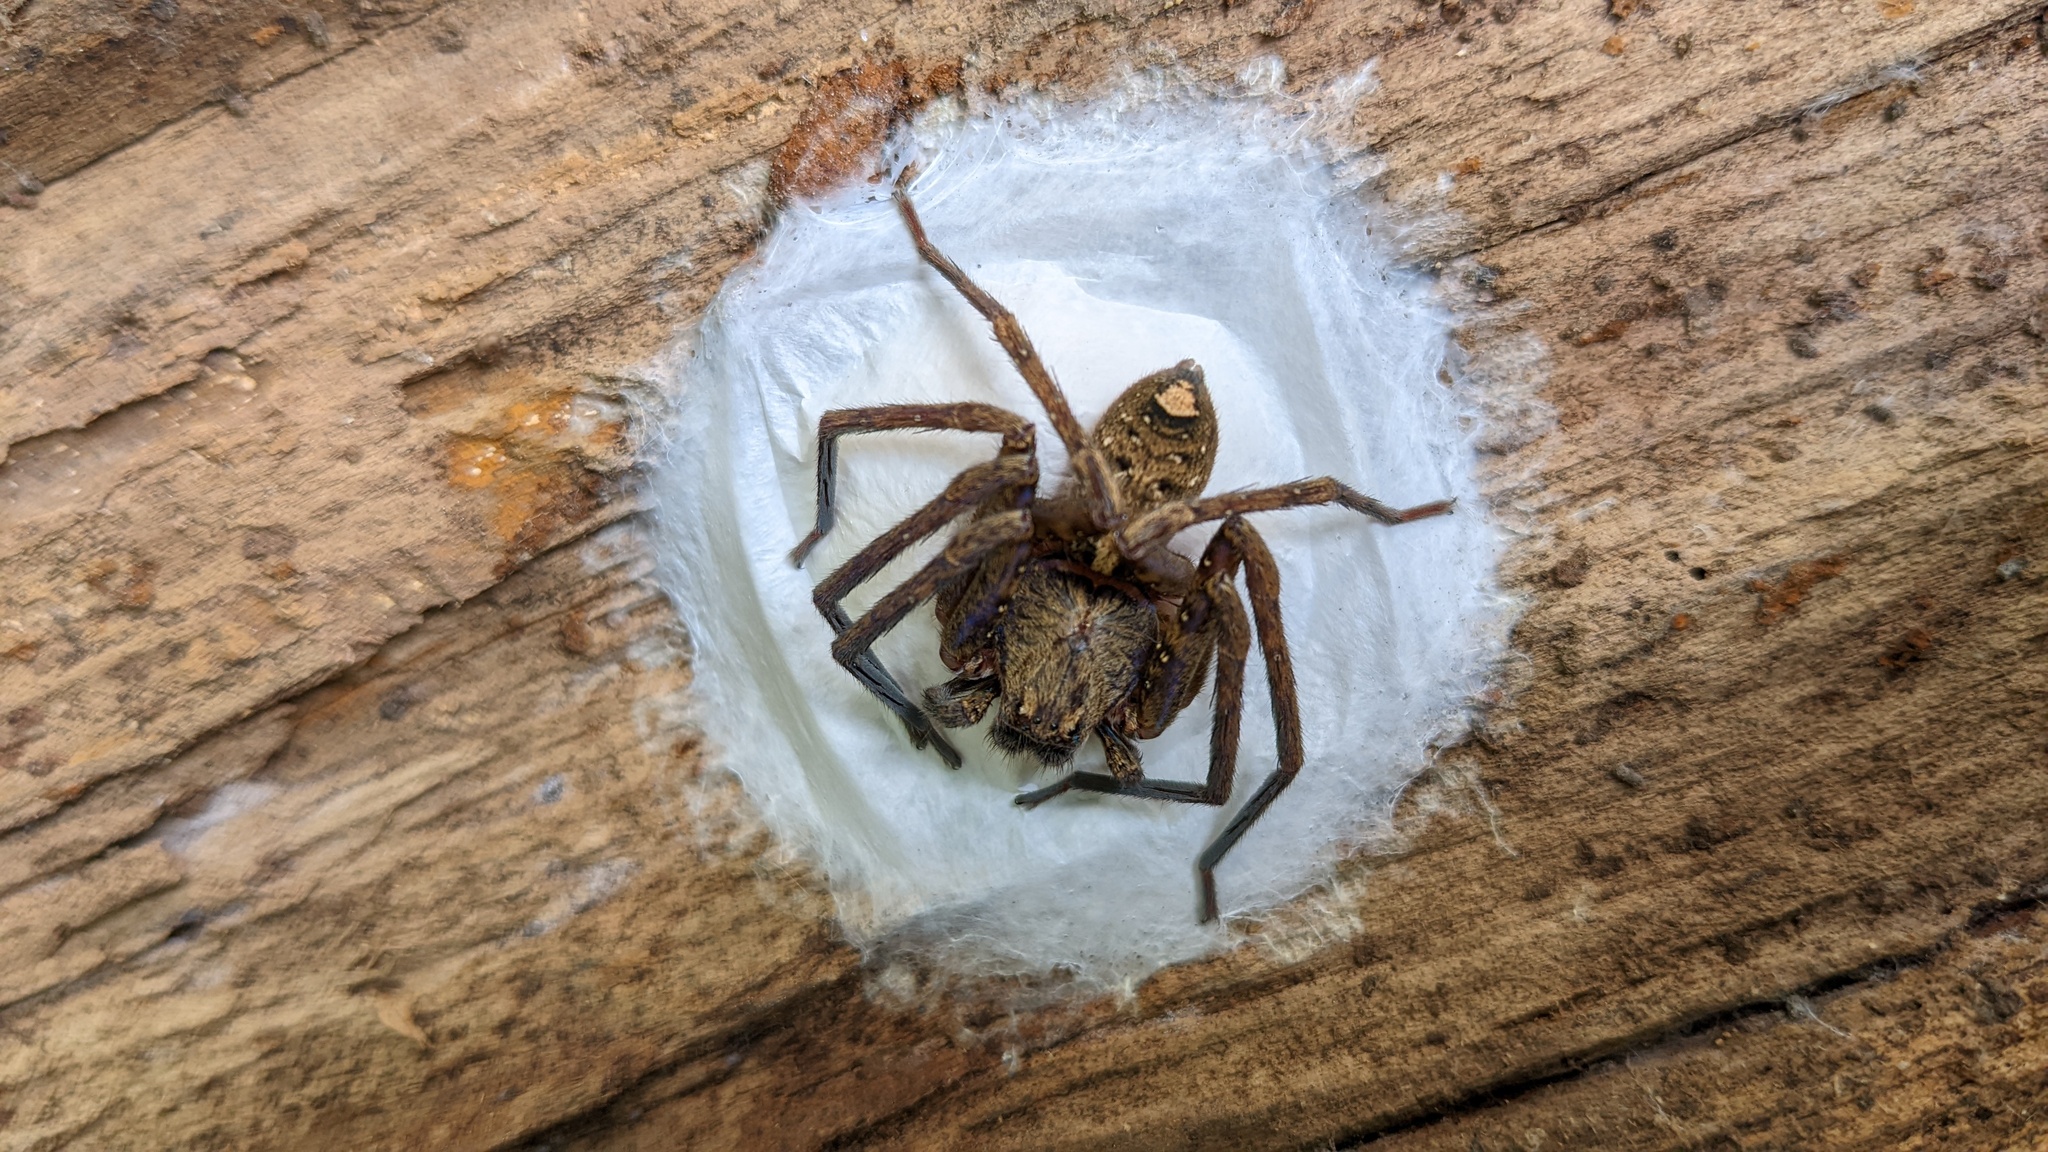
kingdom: Animalia
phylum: Arthropoda
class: Arachnida
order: Araneae
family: Sparassidae
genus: Sinopoda
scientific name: Sinopoda forcipata
